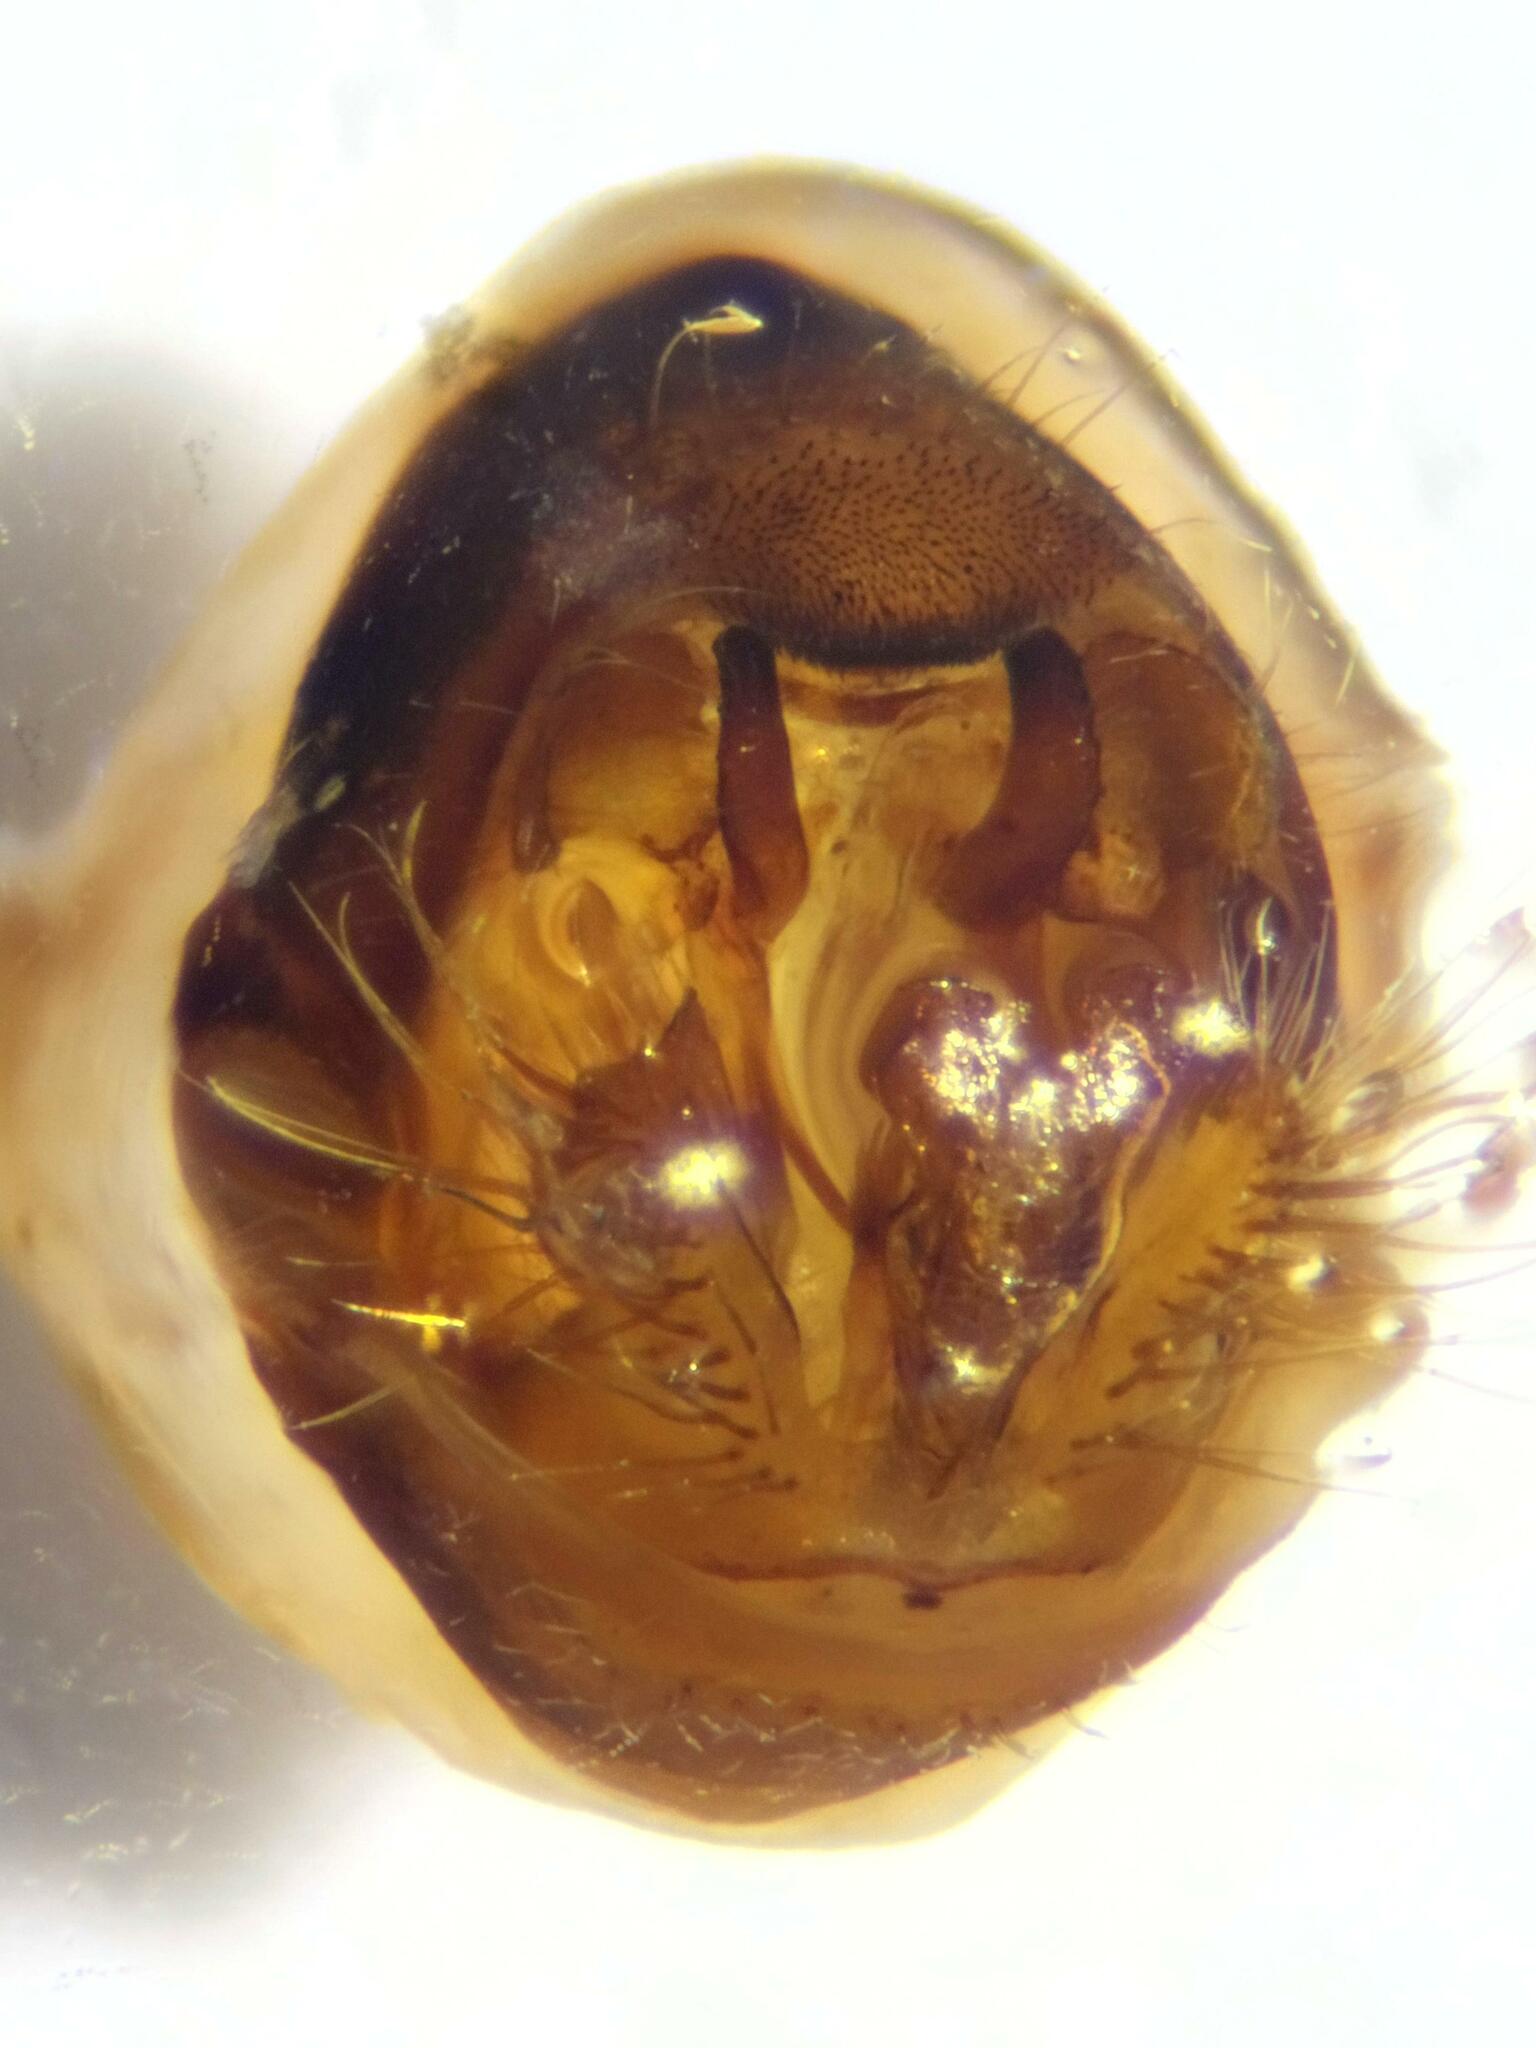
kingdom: Animalia
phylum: Arthropoda
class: Insecta
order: Trichoptera
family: Limnephilidae
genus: Chaetopteryx
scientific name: Chaetopteryx villosa
